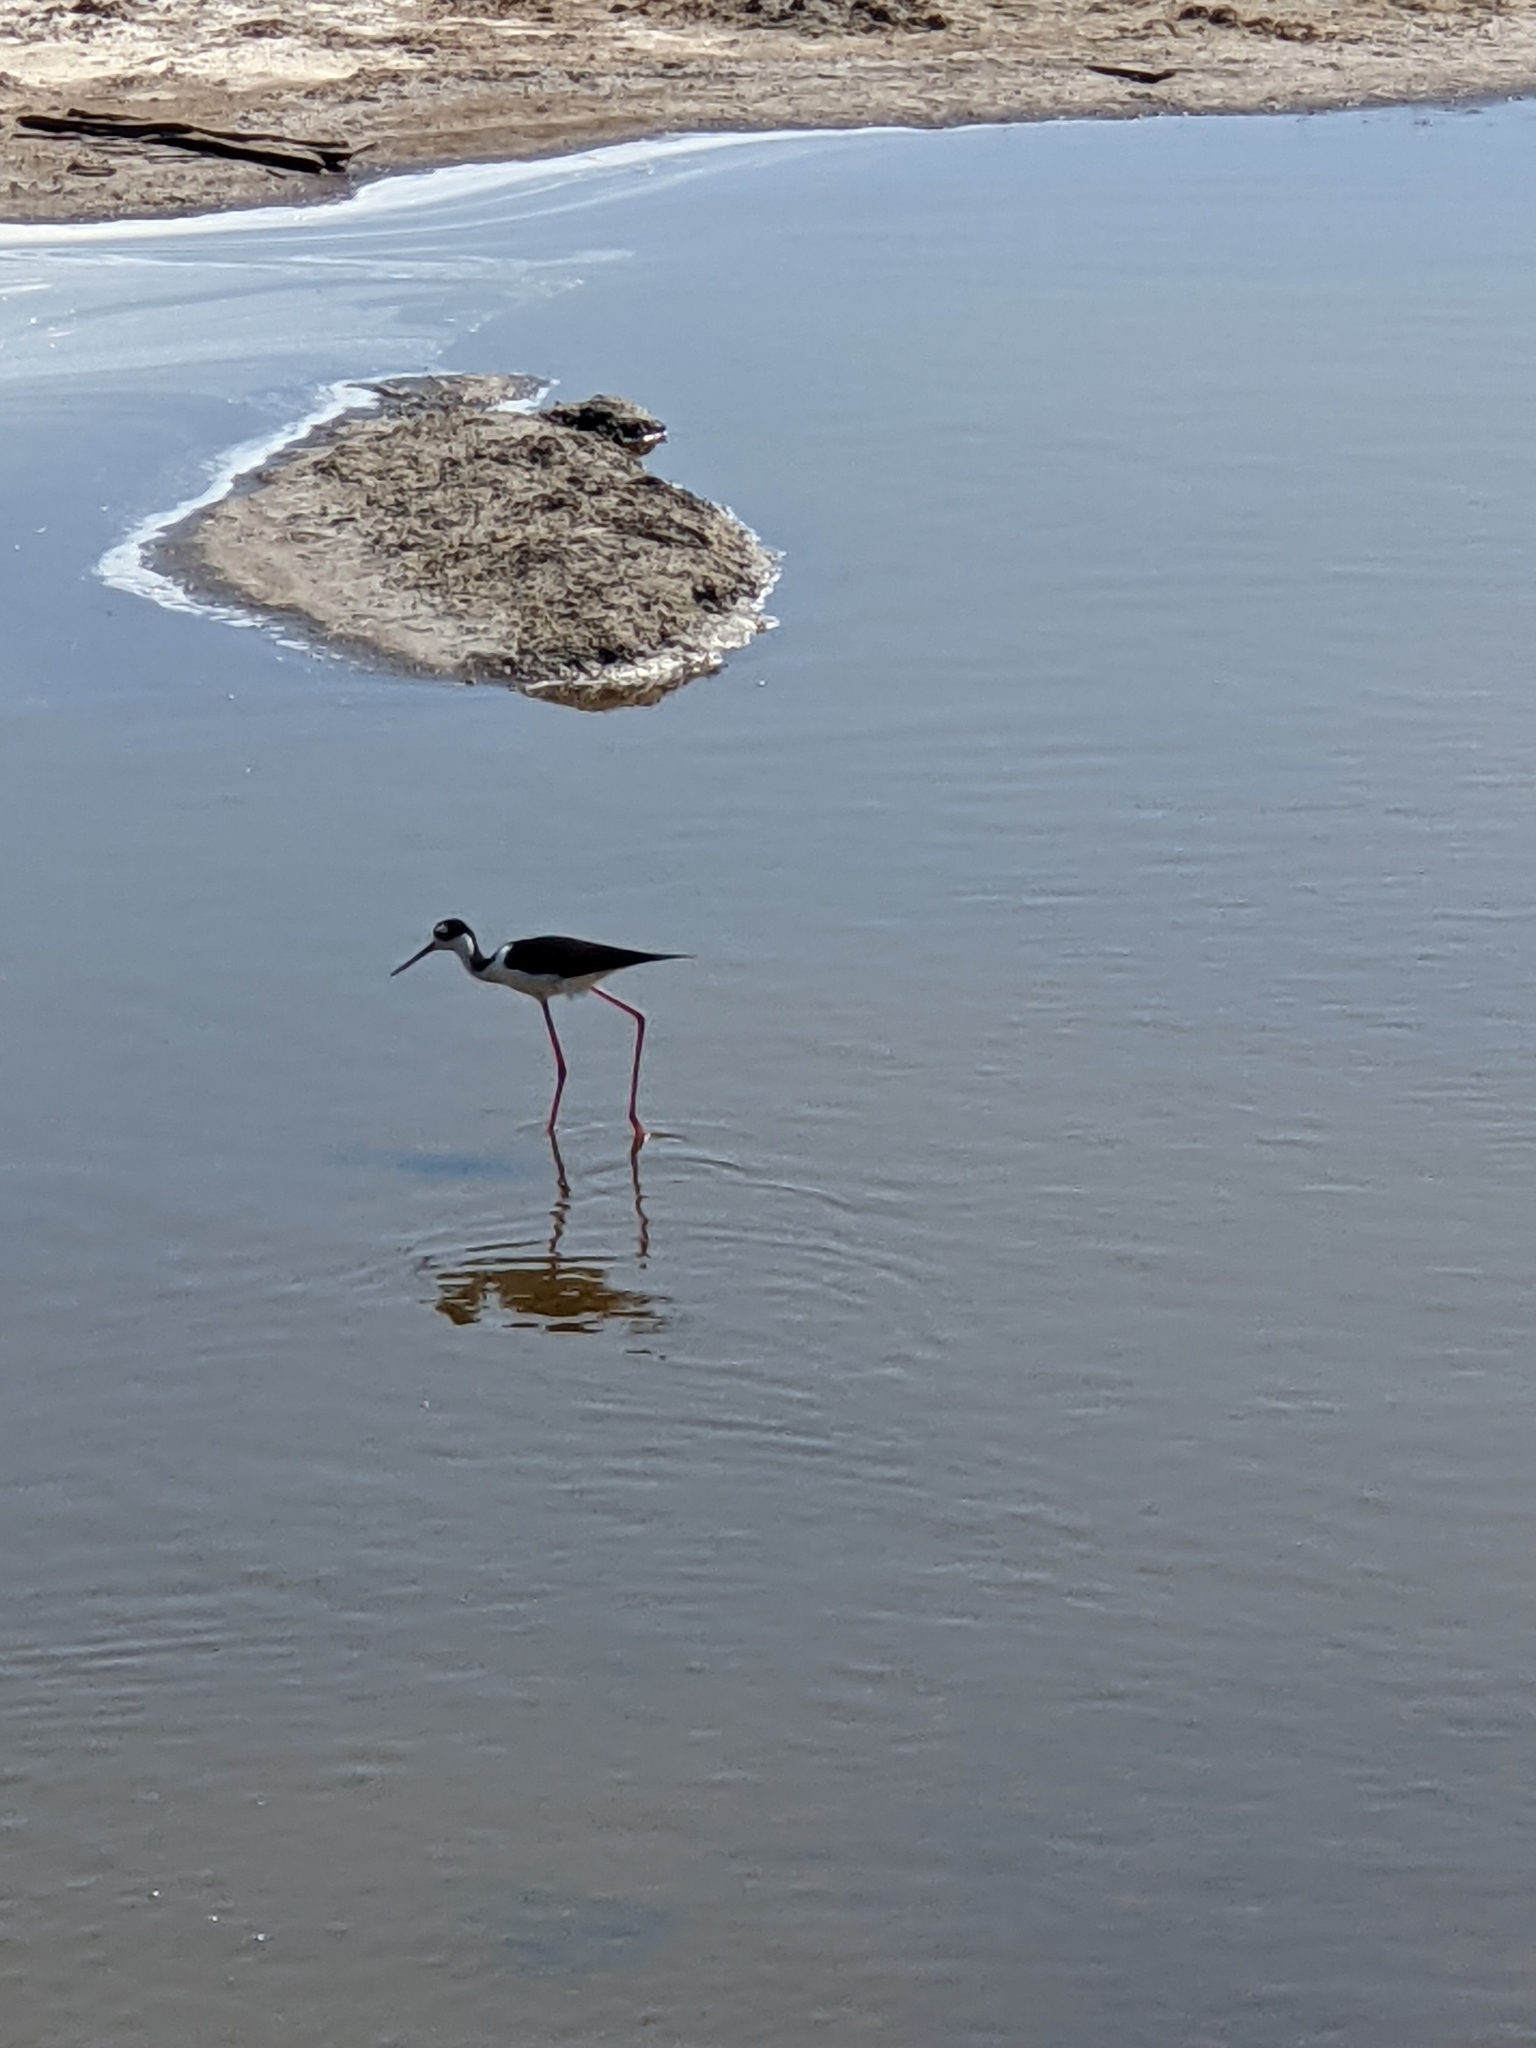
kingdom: Animalia
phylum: Chordata
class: Aves
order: Charadriiformes
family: Recurvirostridae
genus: Himantopus
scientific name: Himantopus mexicanus
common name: Black-necked stilt
